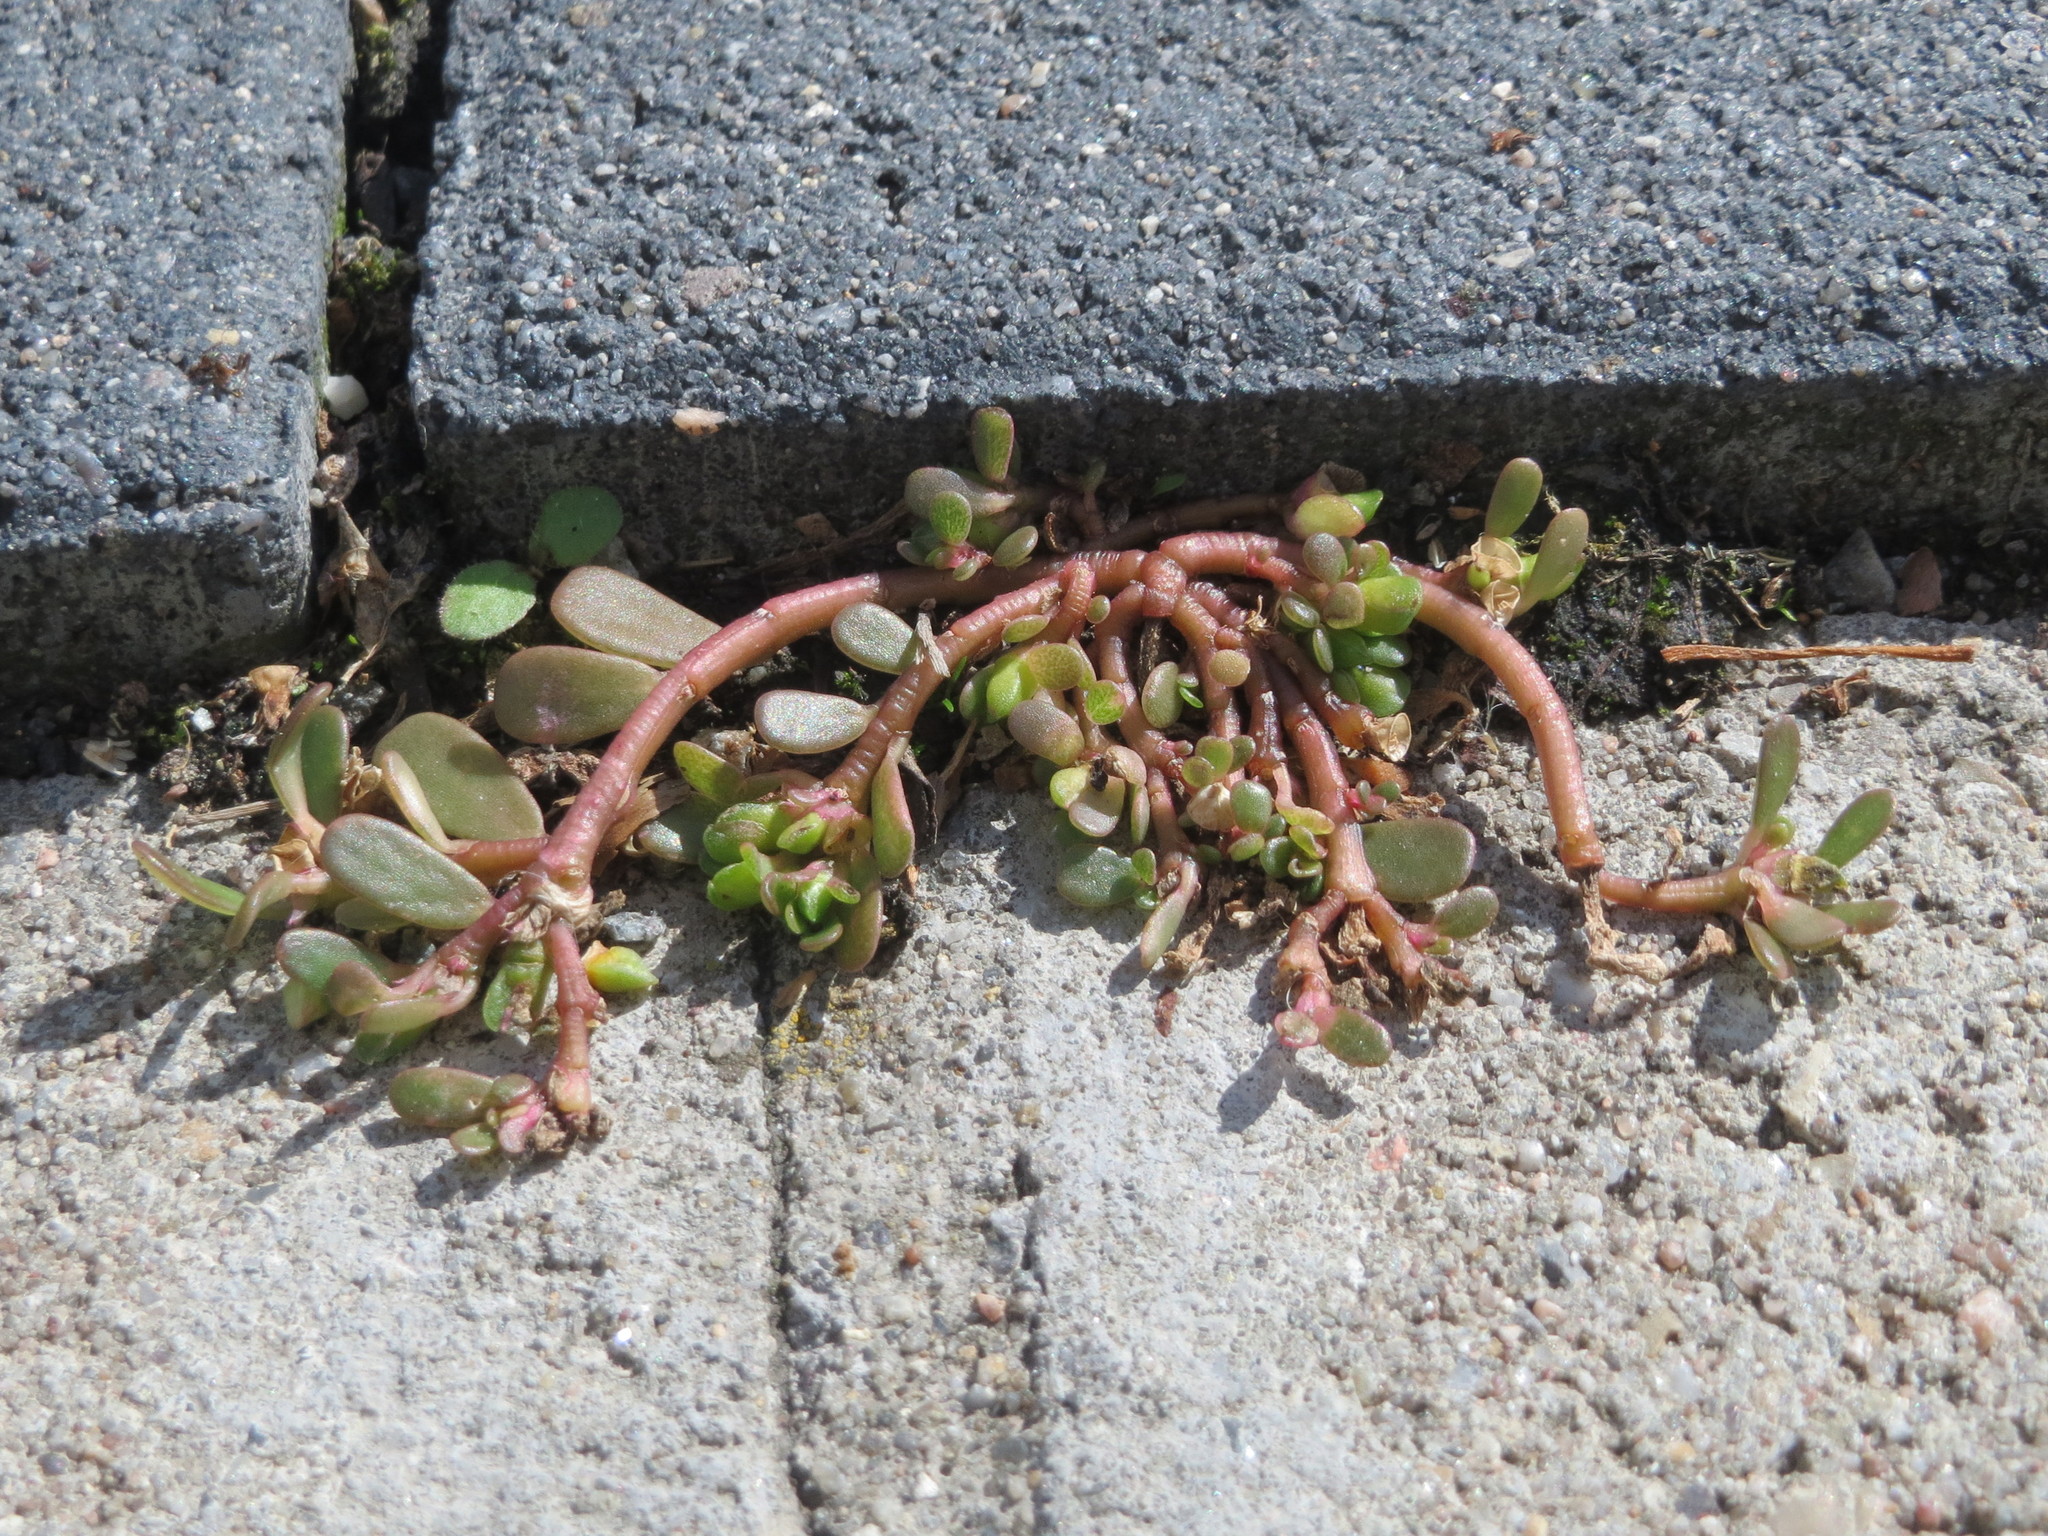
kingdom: Plantae
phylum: Tracheophyta
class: Magnoliopsida
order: Caryophyllales
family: Portulacaceae
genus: Portulaca
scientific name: Portulaca oleracea
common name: Common purslane
